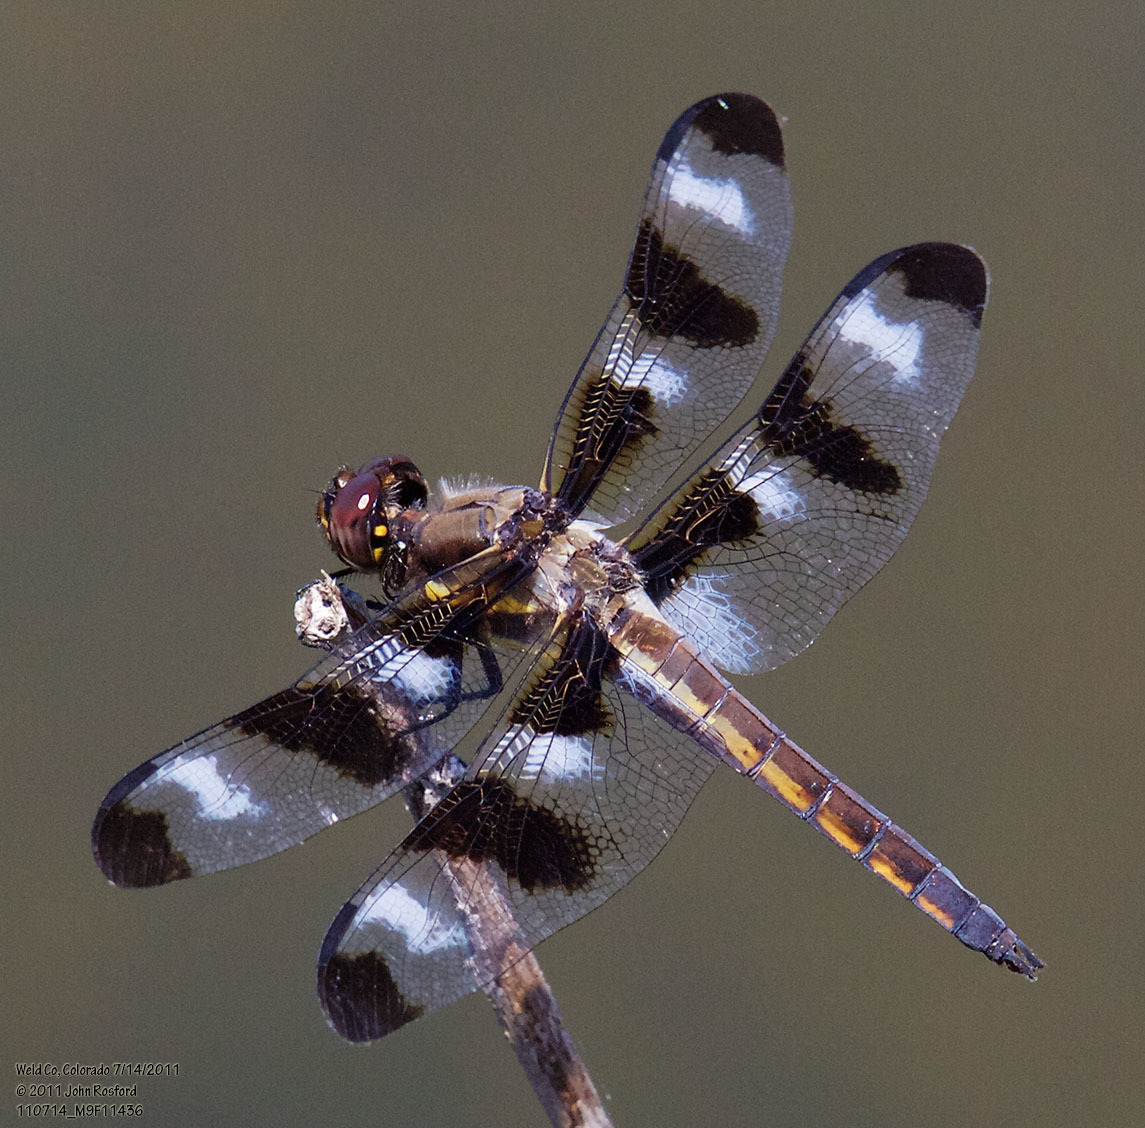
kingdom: Animalia
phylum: Arthropoda
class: Insecta
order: Odonata
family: Libellulidae
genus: Libellula
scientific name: Libellula pulchella
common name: Twelve-spotted skimmer
